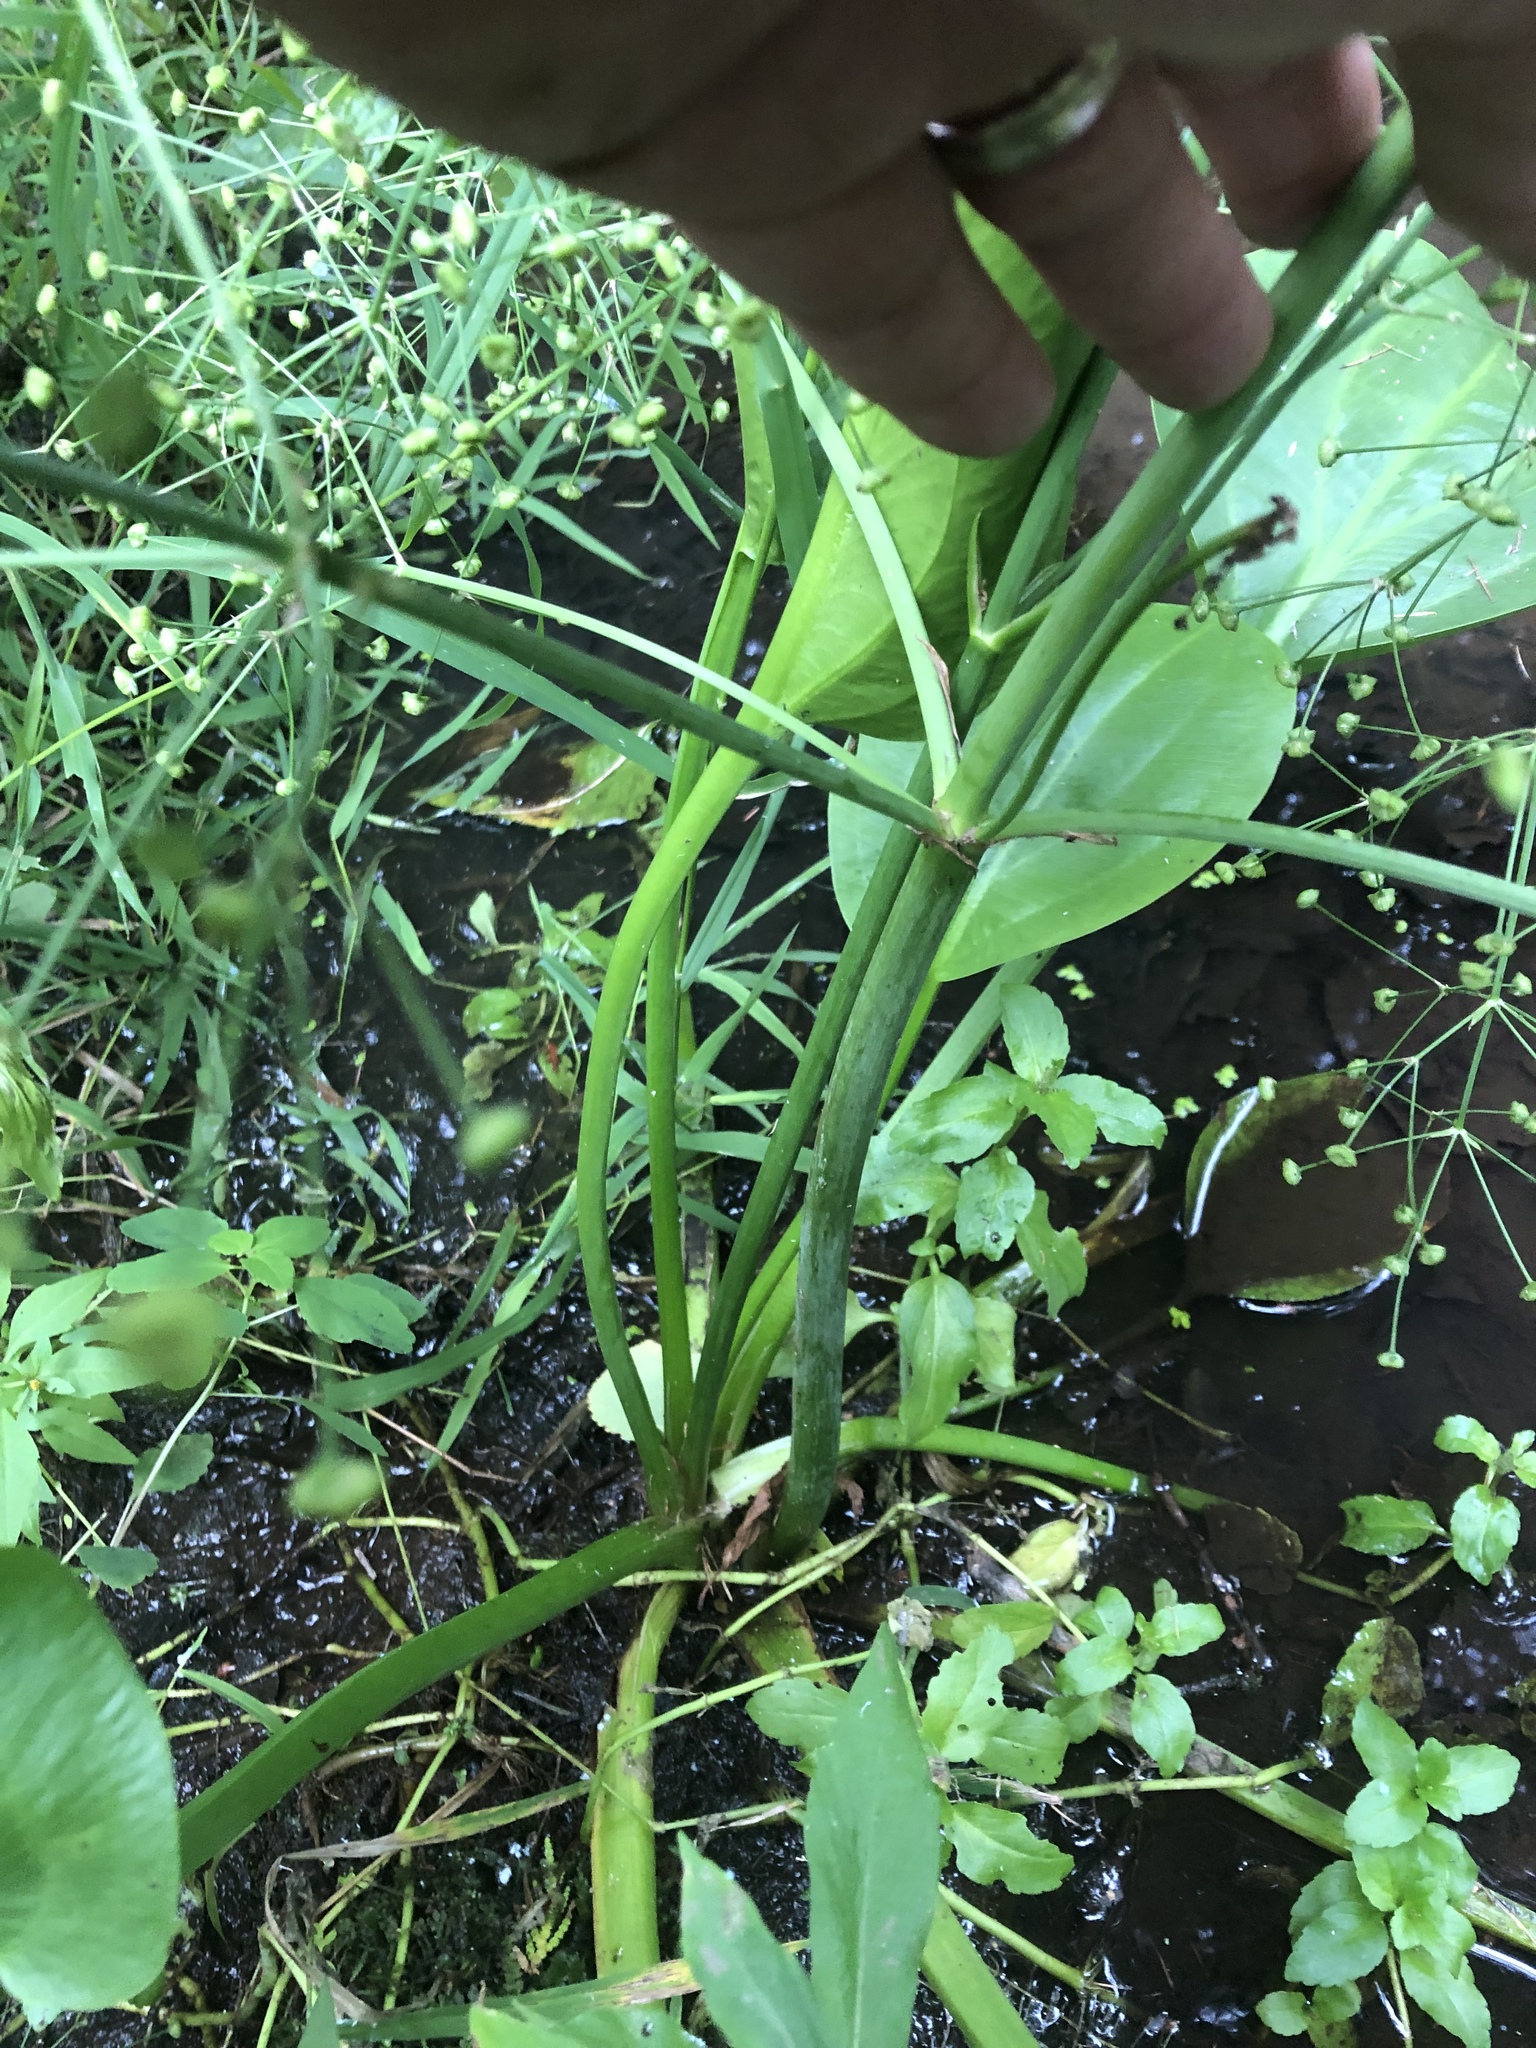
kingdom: Plantae
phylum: Tracheophyta
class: Liliopsida
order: Alismatales
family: Alismataceae
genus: Alisma
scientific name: Alisma triviale
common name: Northern water-plantain
